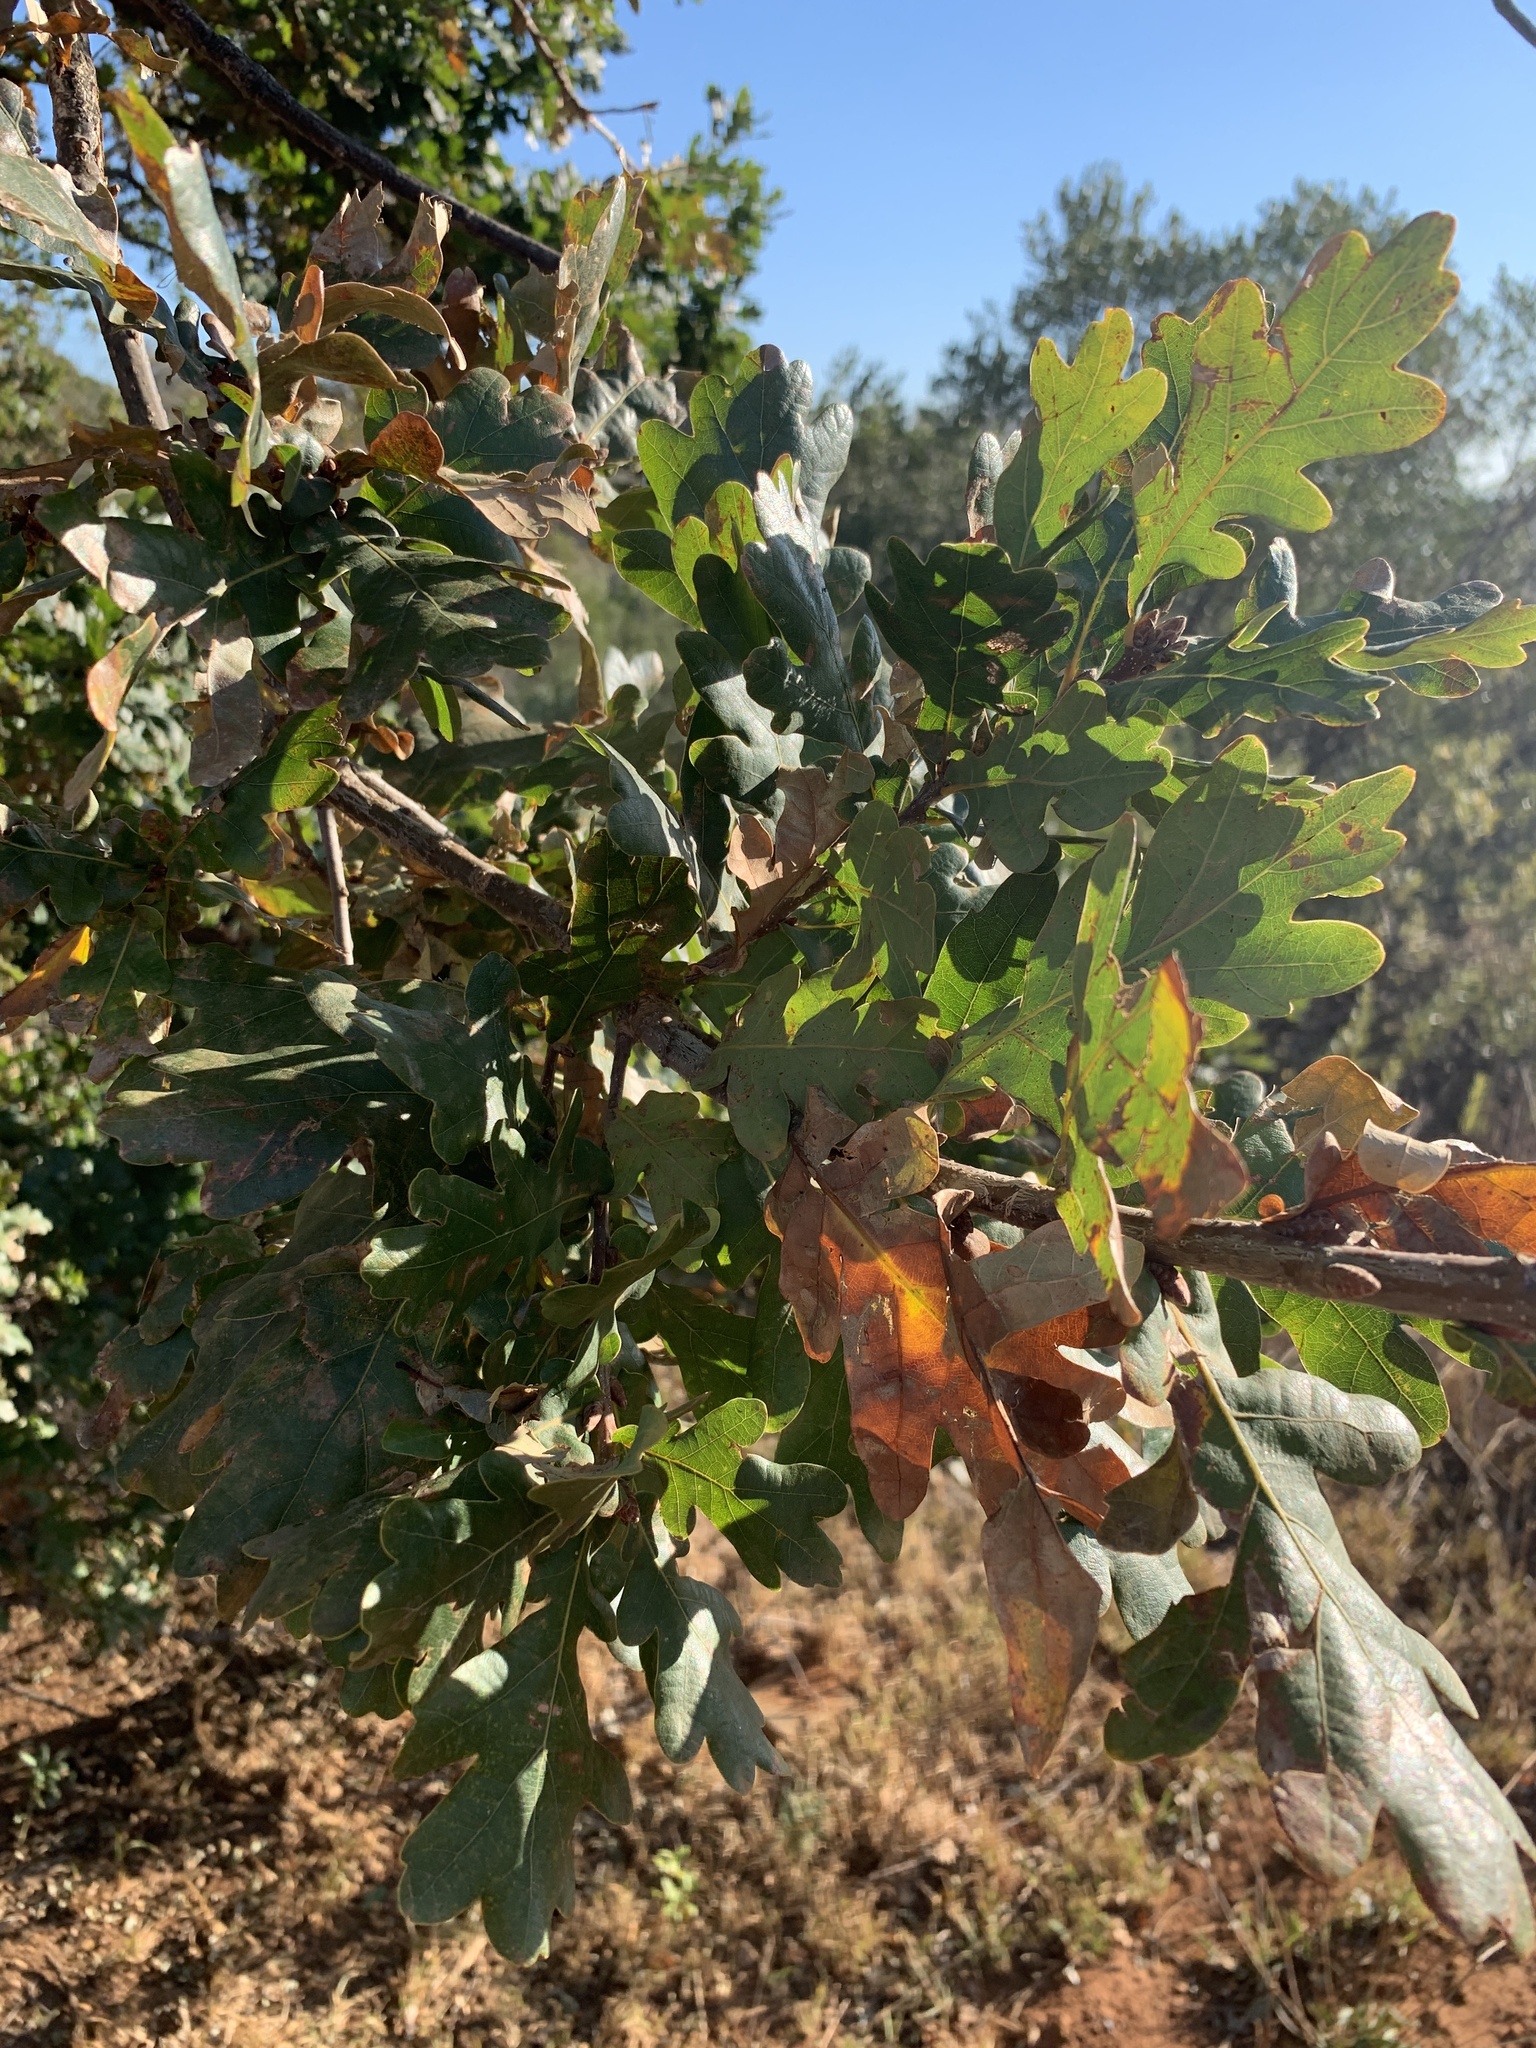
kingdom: Plantae
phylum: Tracheophyta
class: Magnoliopsida
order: Fagales
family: Fagaceae
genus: Quercus
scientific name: Quercus robur
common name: Pedunculate oak
